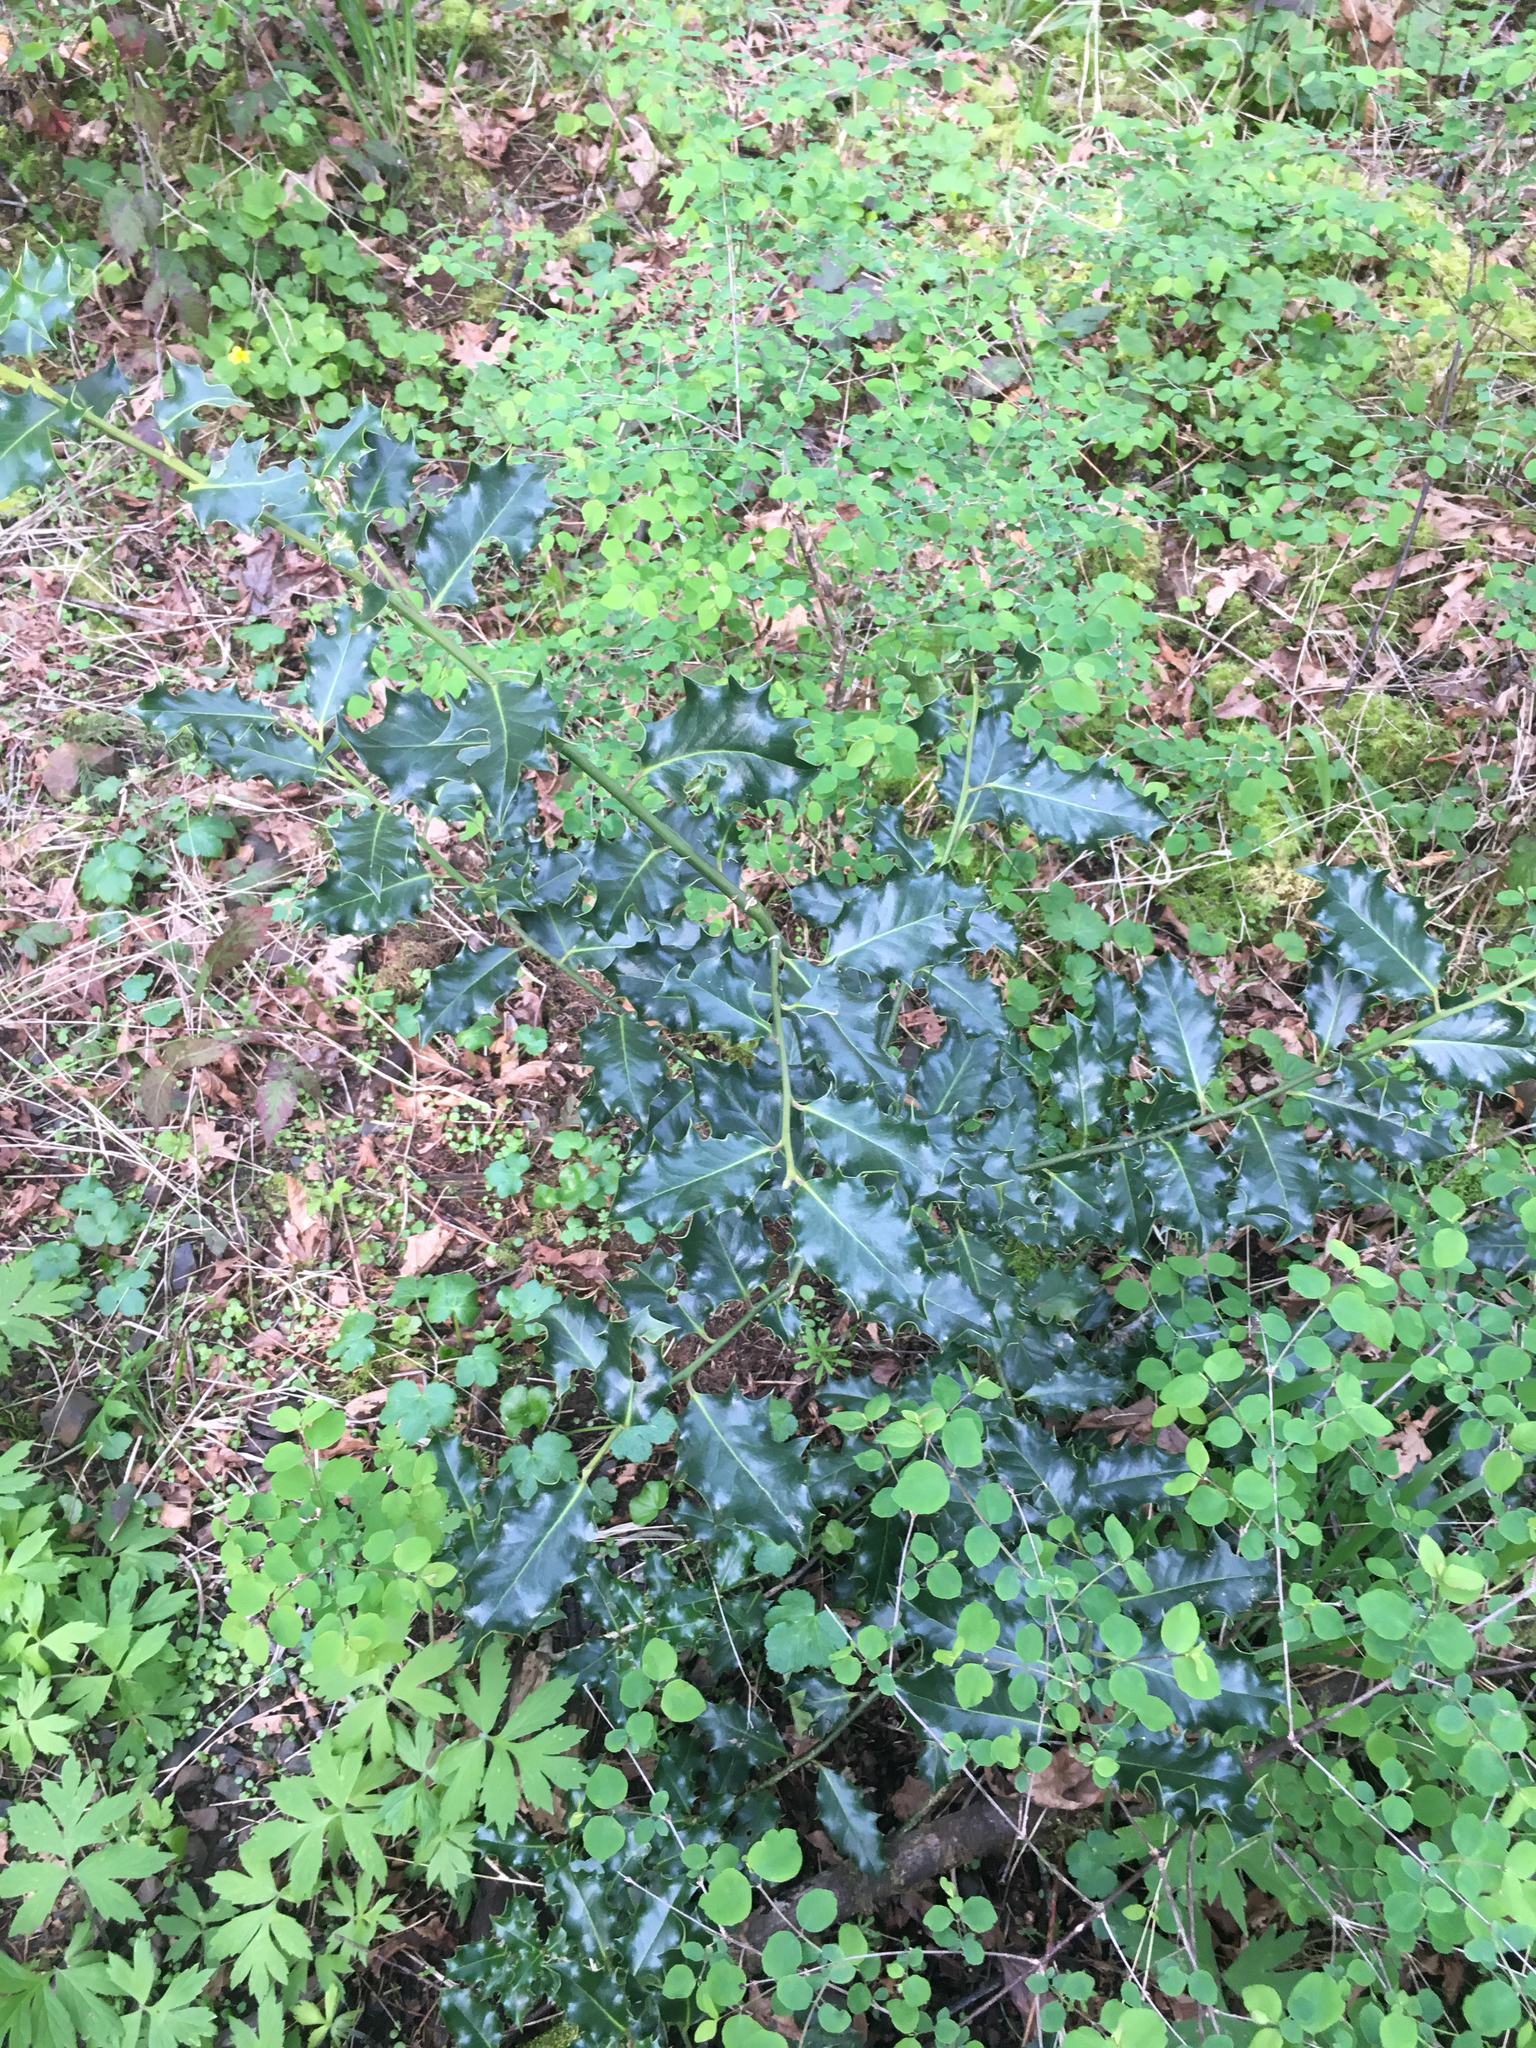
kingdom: Plantae
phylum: Tracheophyta
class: Magnoliopsida
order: Aquifoliales
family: Aquifoliaceae
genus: Ilex
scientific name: Ilex aquifolium
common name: English holly
